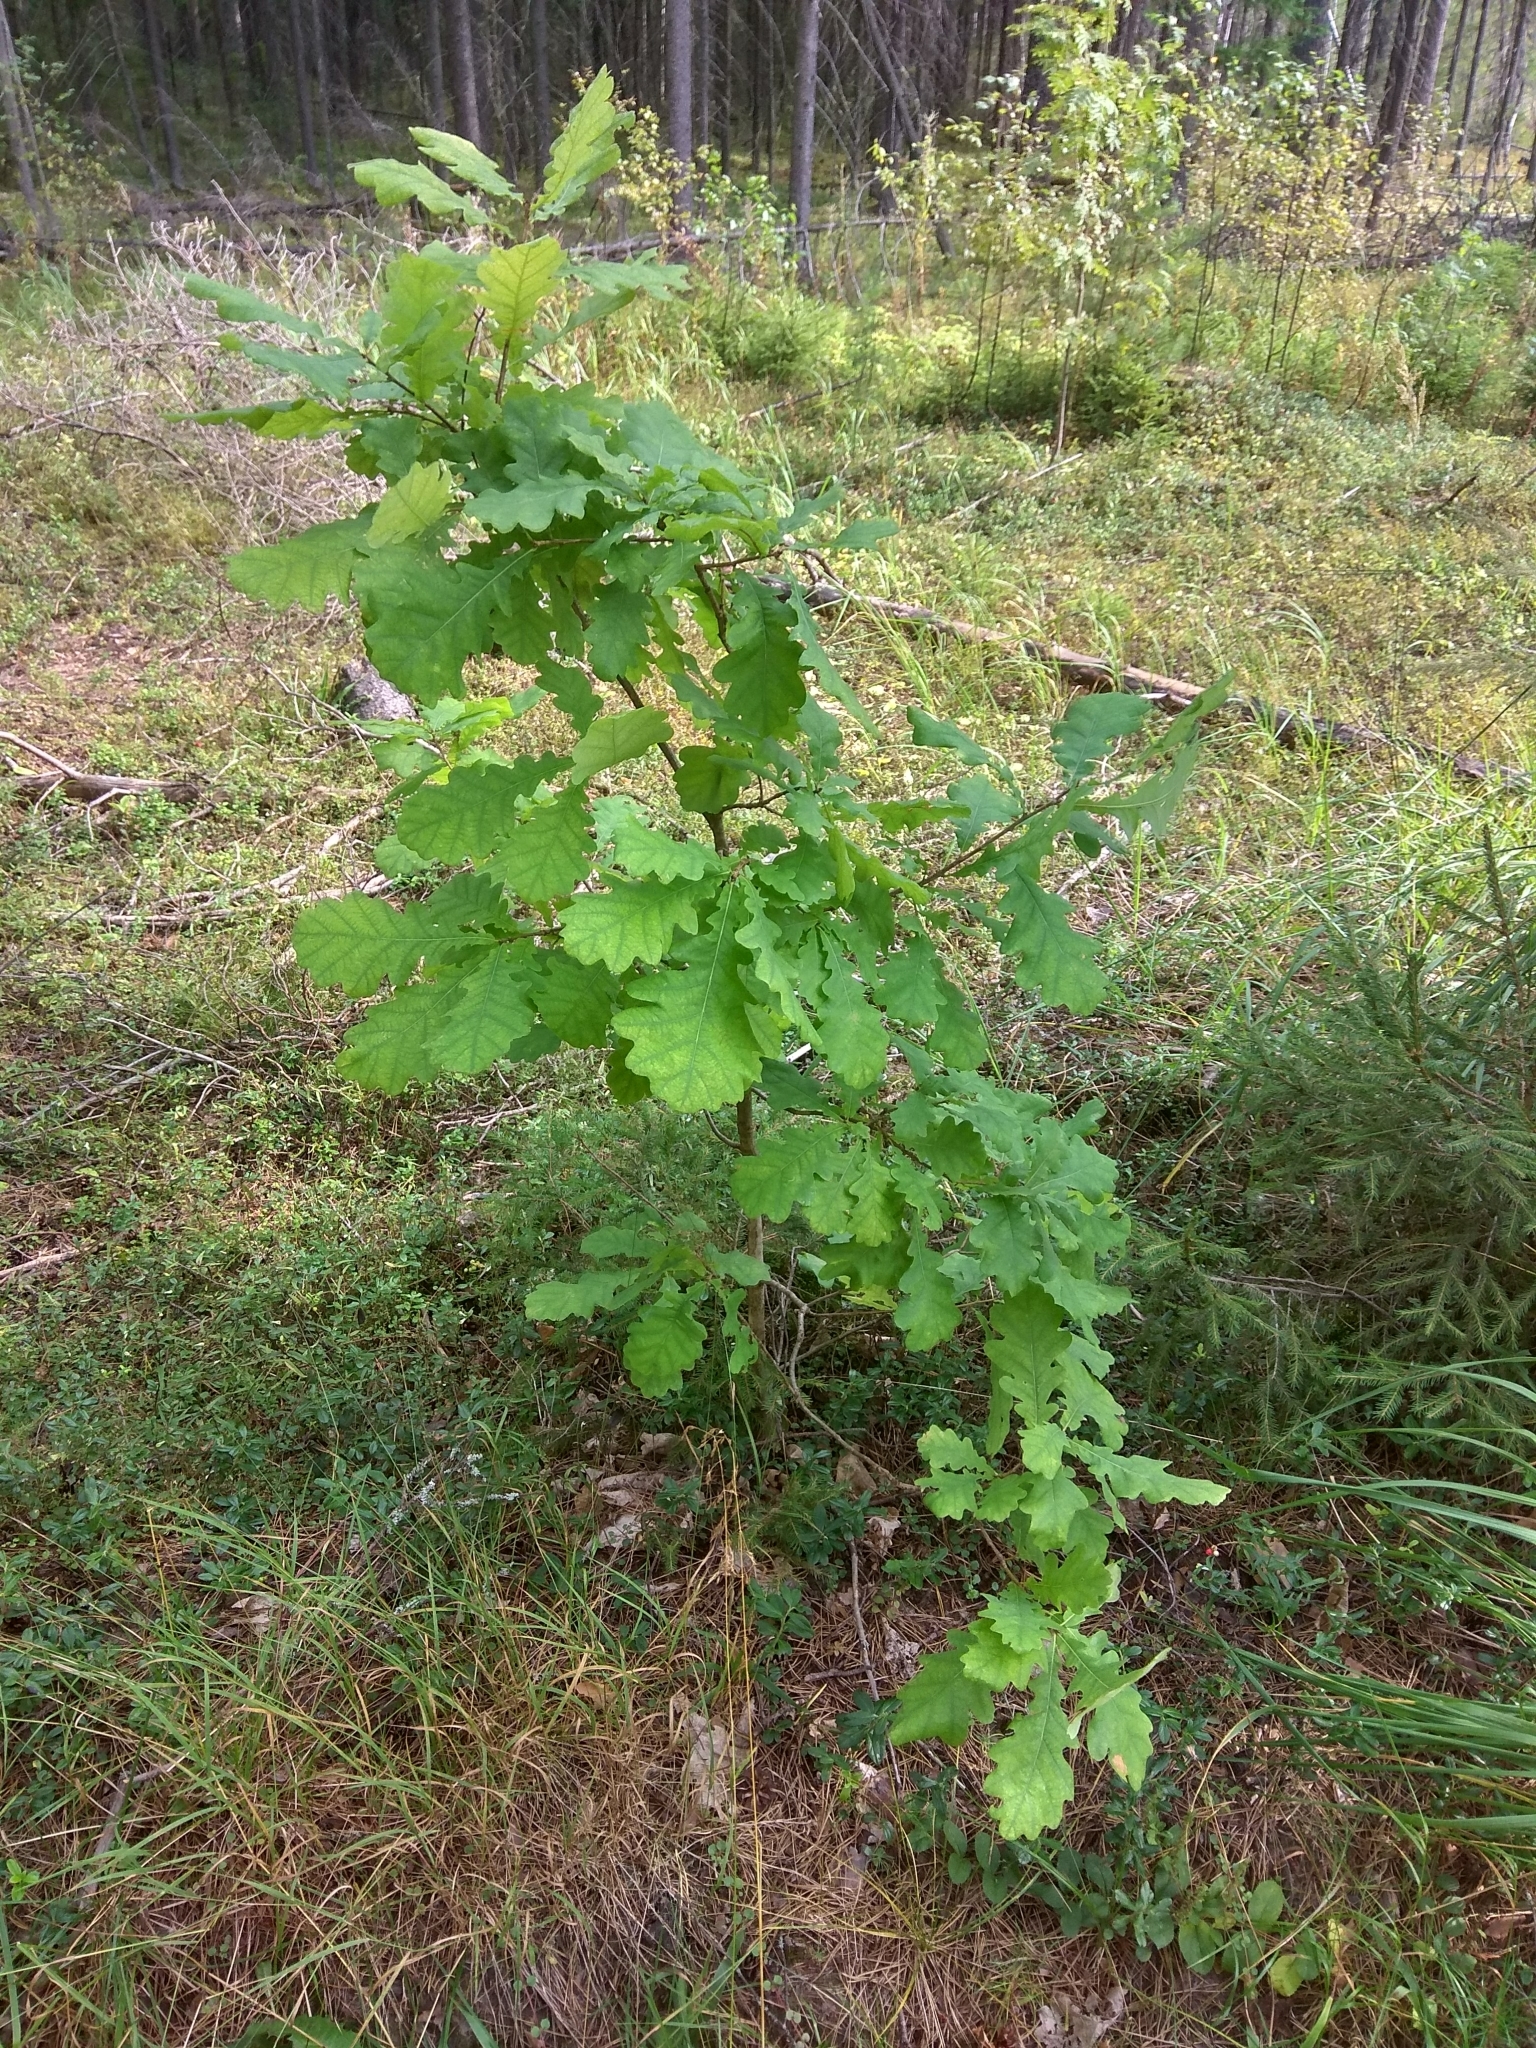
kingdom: Plantae
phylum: Tracheophyta
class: Magnoliopsida
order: Fagales
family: Fagaceae
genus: Quercus
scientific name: Quercus robur
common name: Pedunculate oak
